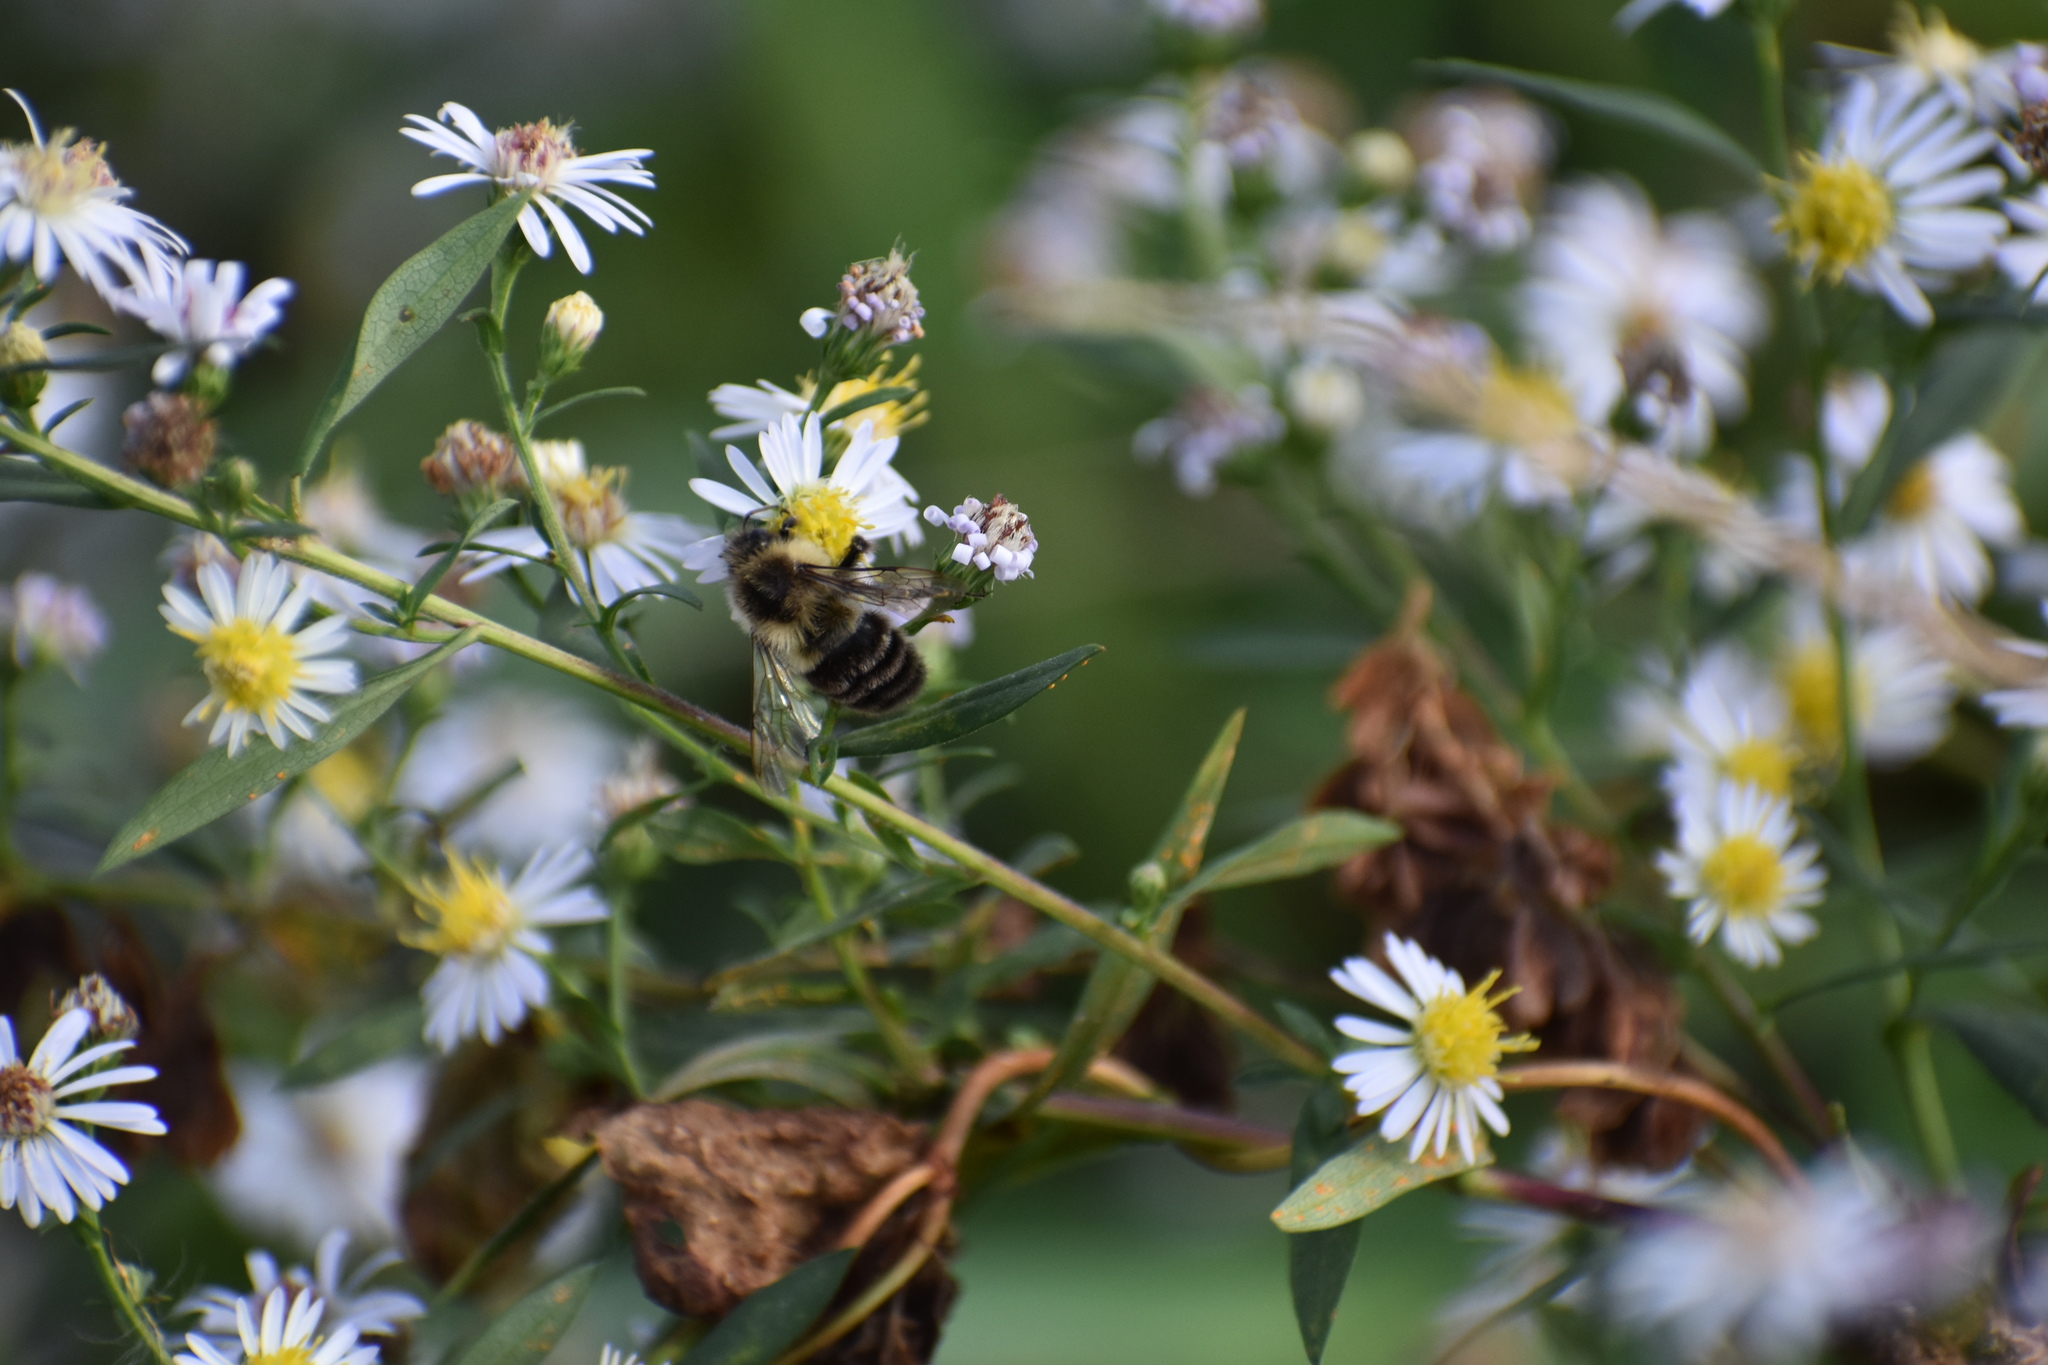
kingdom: Animalia
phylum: Arthropoda
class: Insecta
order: Hymenoptera
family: Apidae
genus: Bombus
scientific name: Bombus impatiens
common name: Common eastern bumble bee
